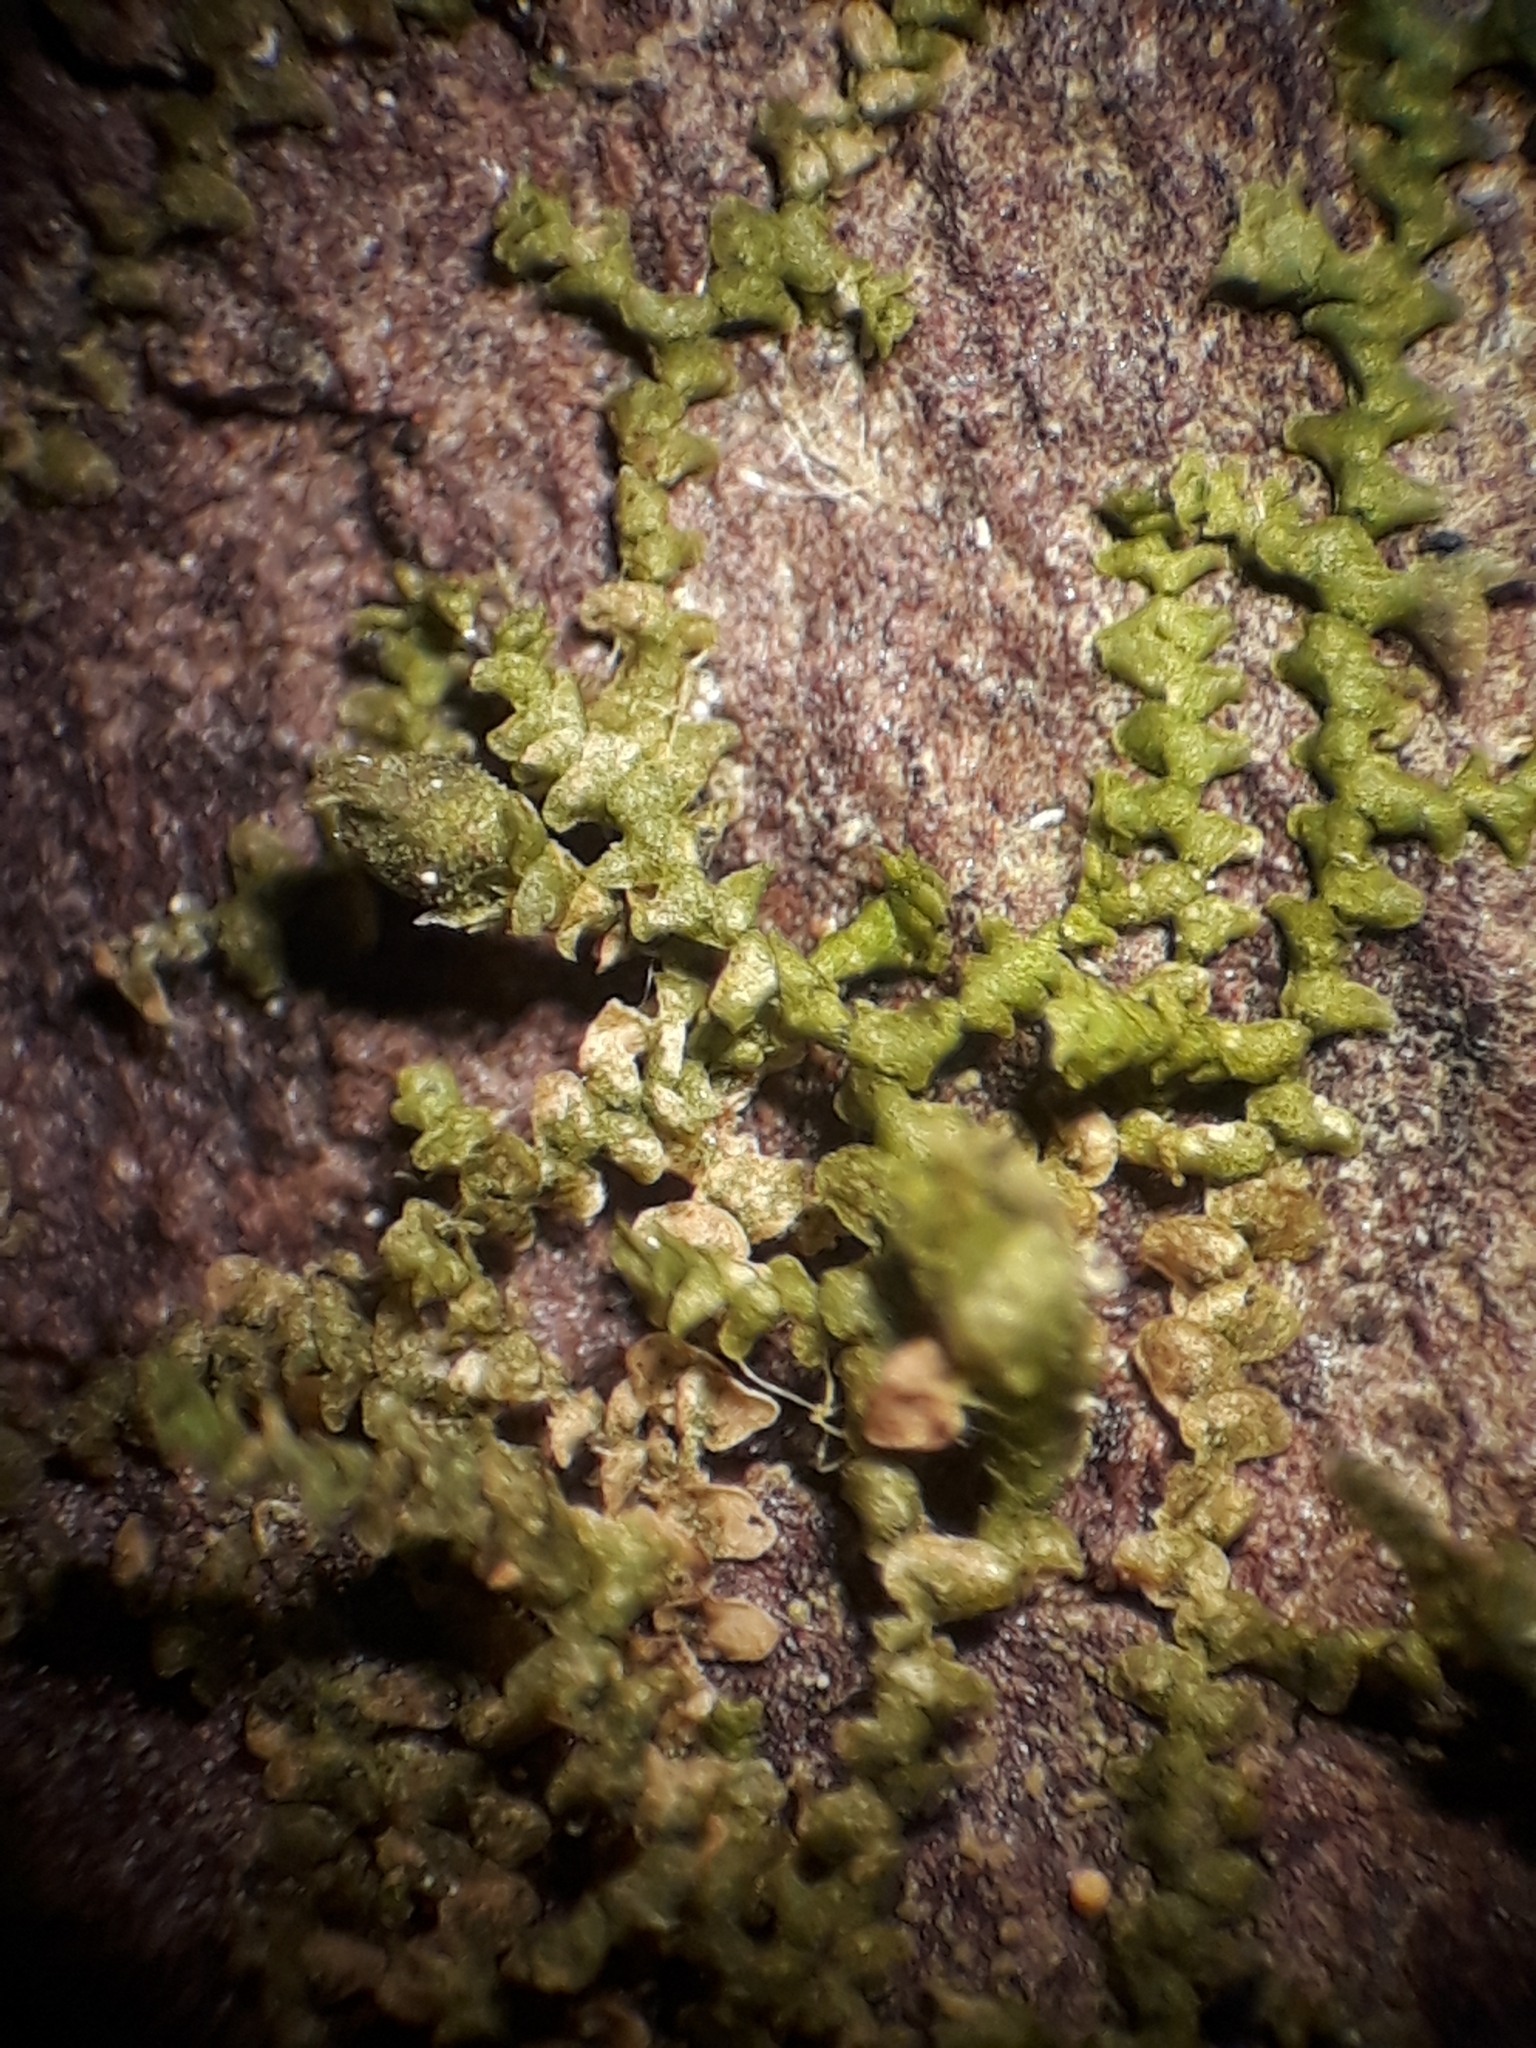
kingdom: Plantae
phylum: Marchantiophyta
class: Jungermanniopsida
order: Porellales
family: Frullaniaceae
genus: Frullania
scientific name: Frullania pycnantha
